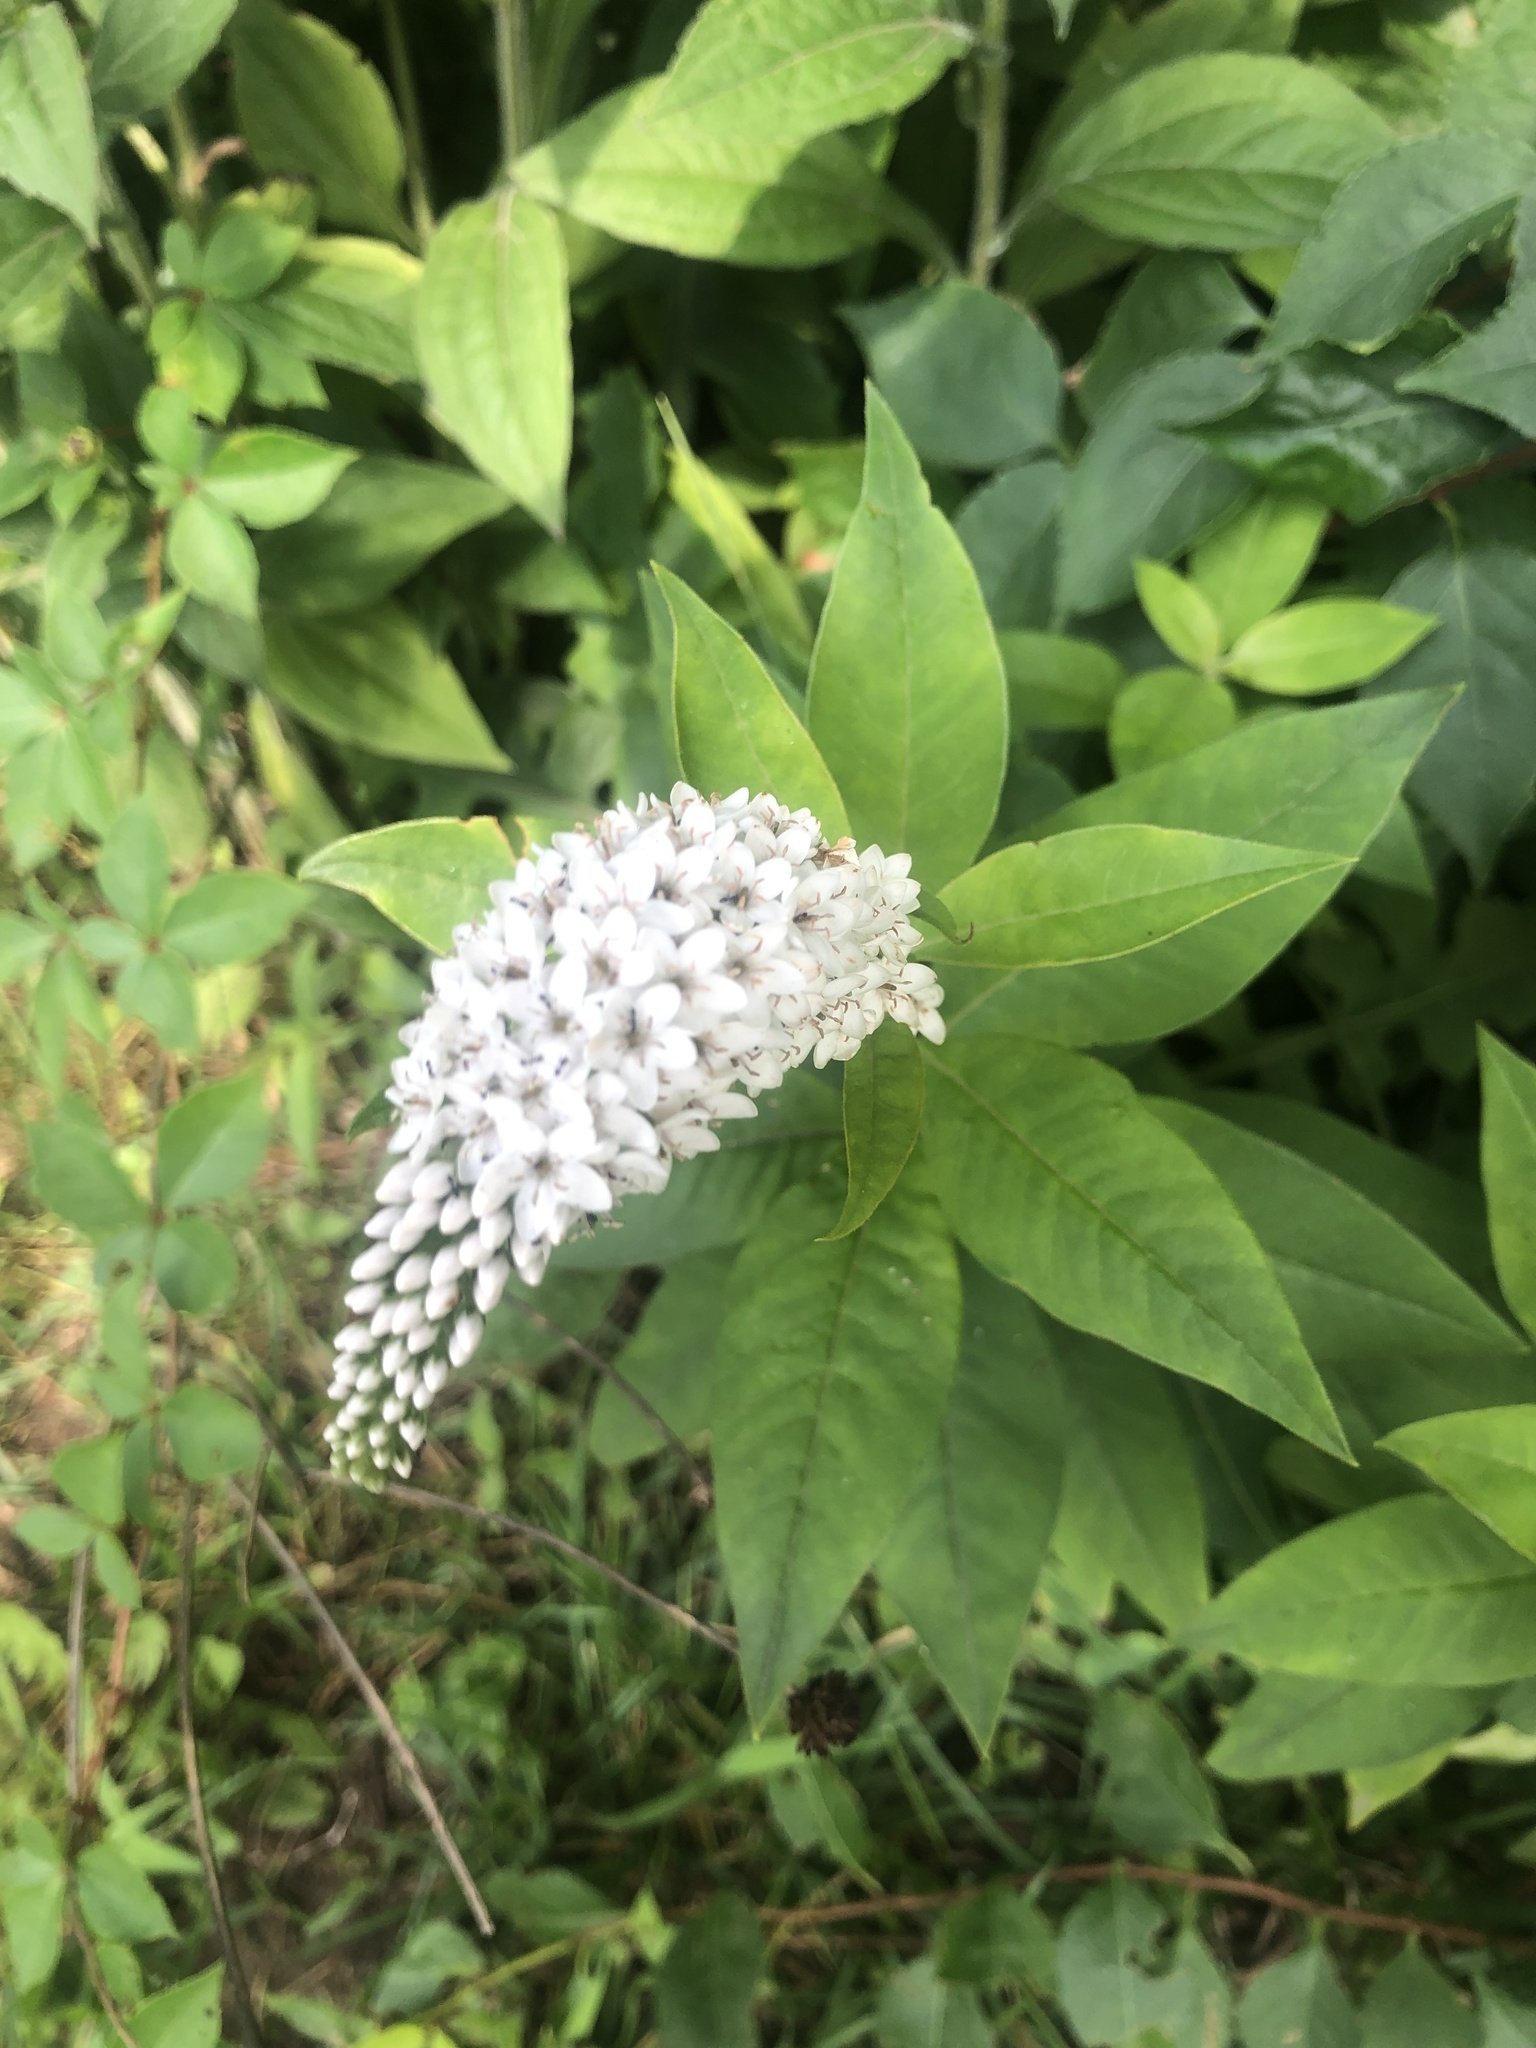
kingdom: Plantae
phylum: Tracheophyta
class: Magnoliopsida
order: Ericales
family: Primulaceae
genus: Lysimachia
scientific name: Lysimachia clethroides
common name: Gooseneck loosestrife
